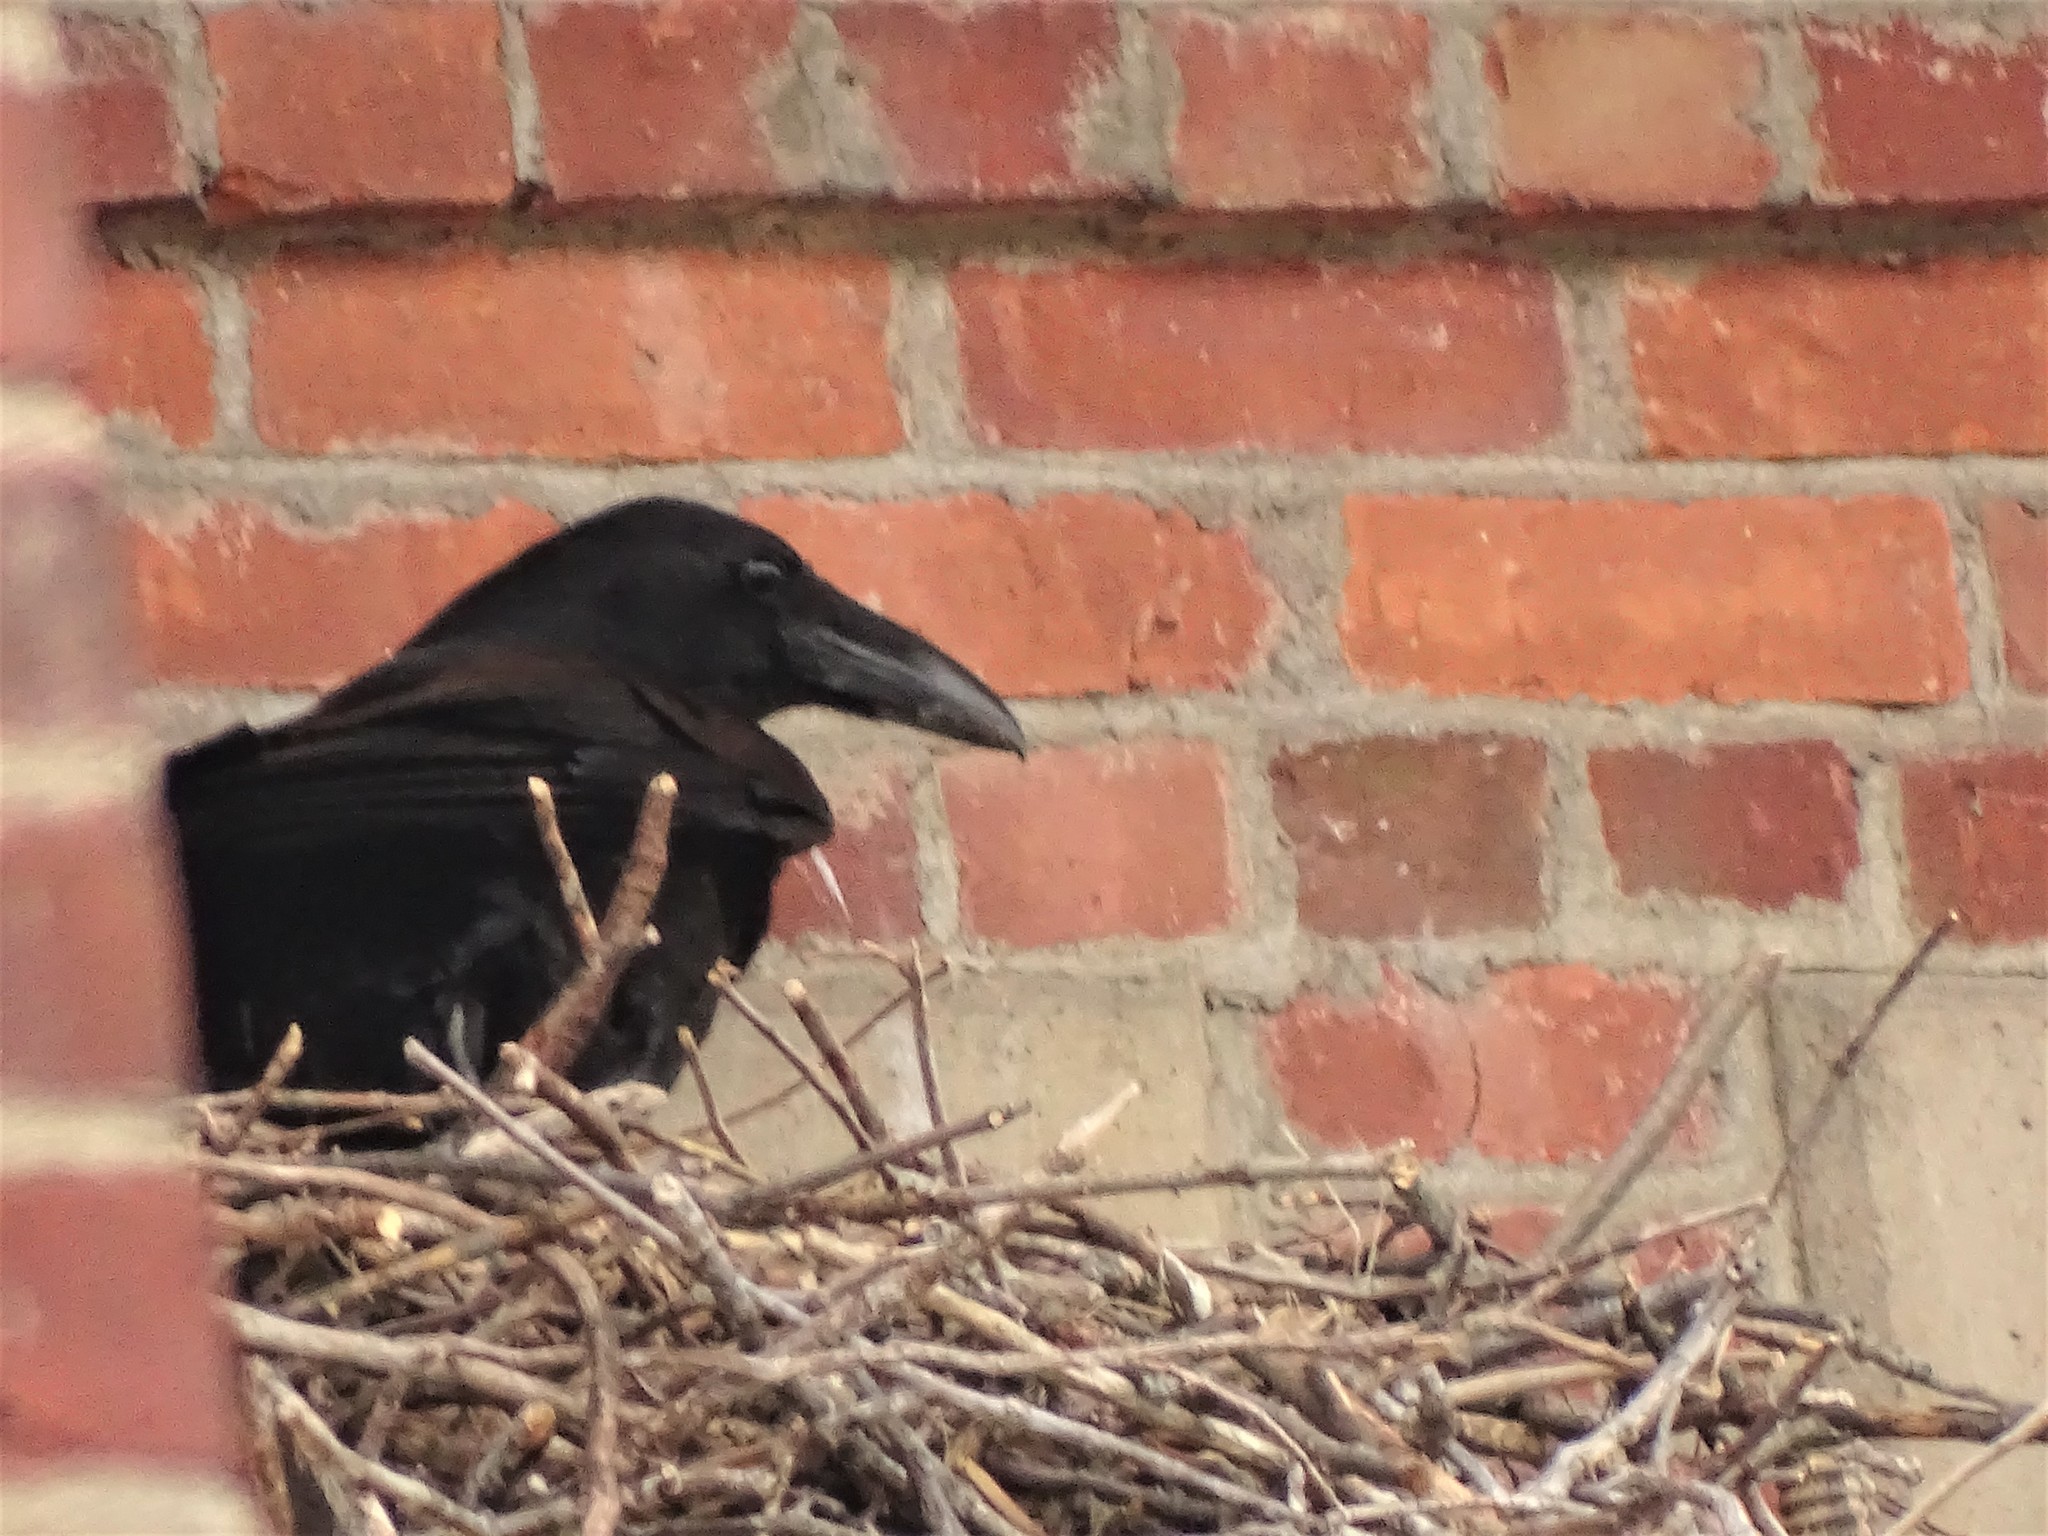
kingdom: Animalia
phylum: Chordata
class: Aves
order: Passeriformes
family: Corvidae
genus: Corvus
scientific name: Corvus corax
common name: Common raven
